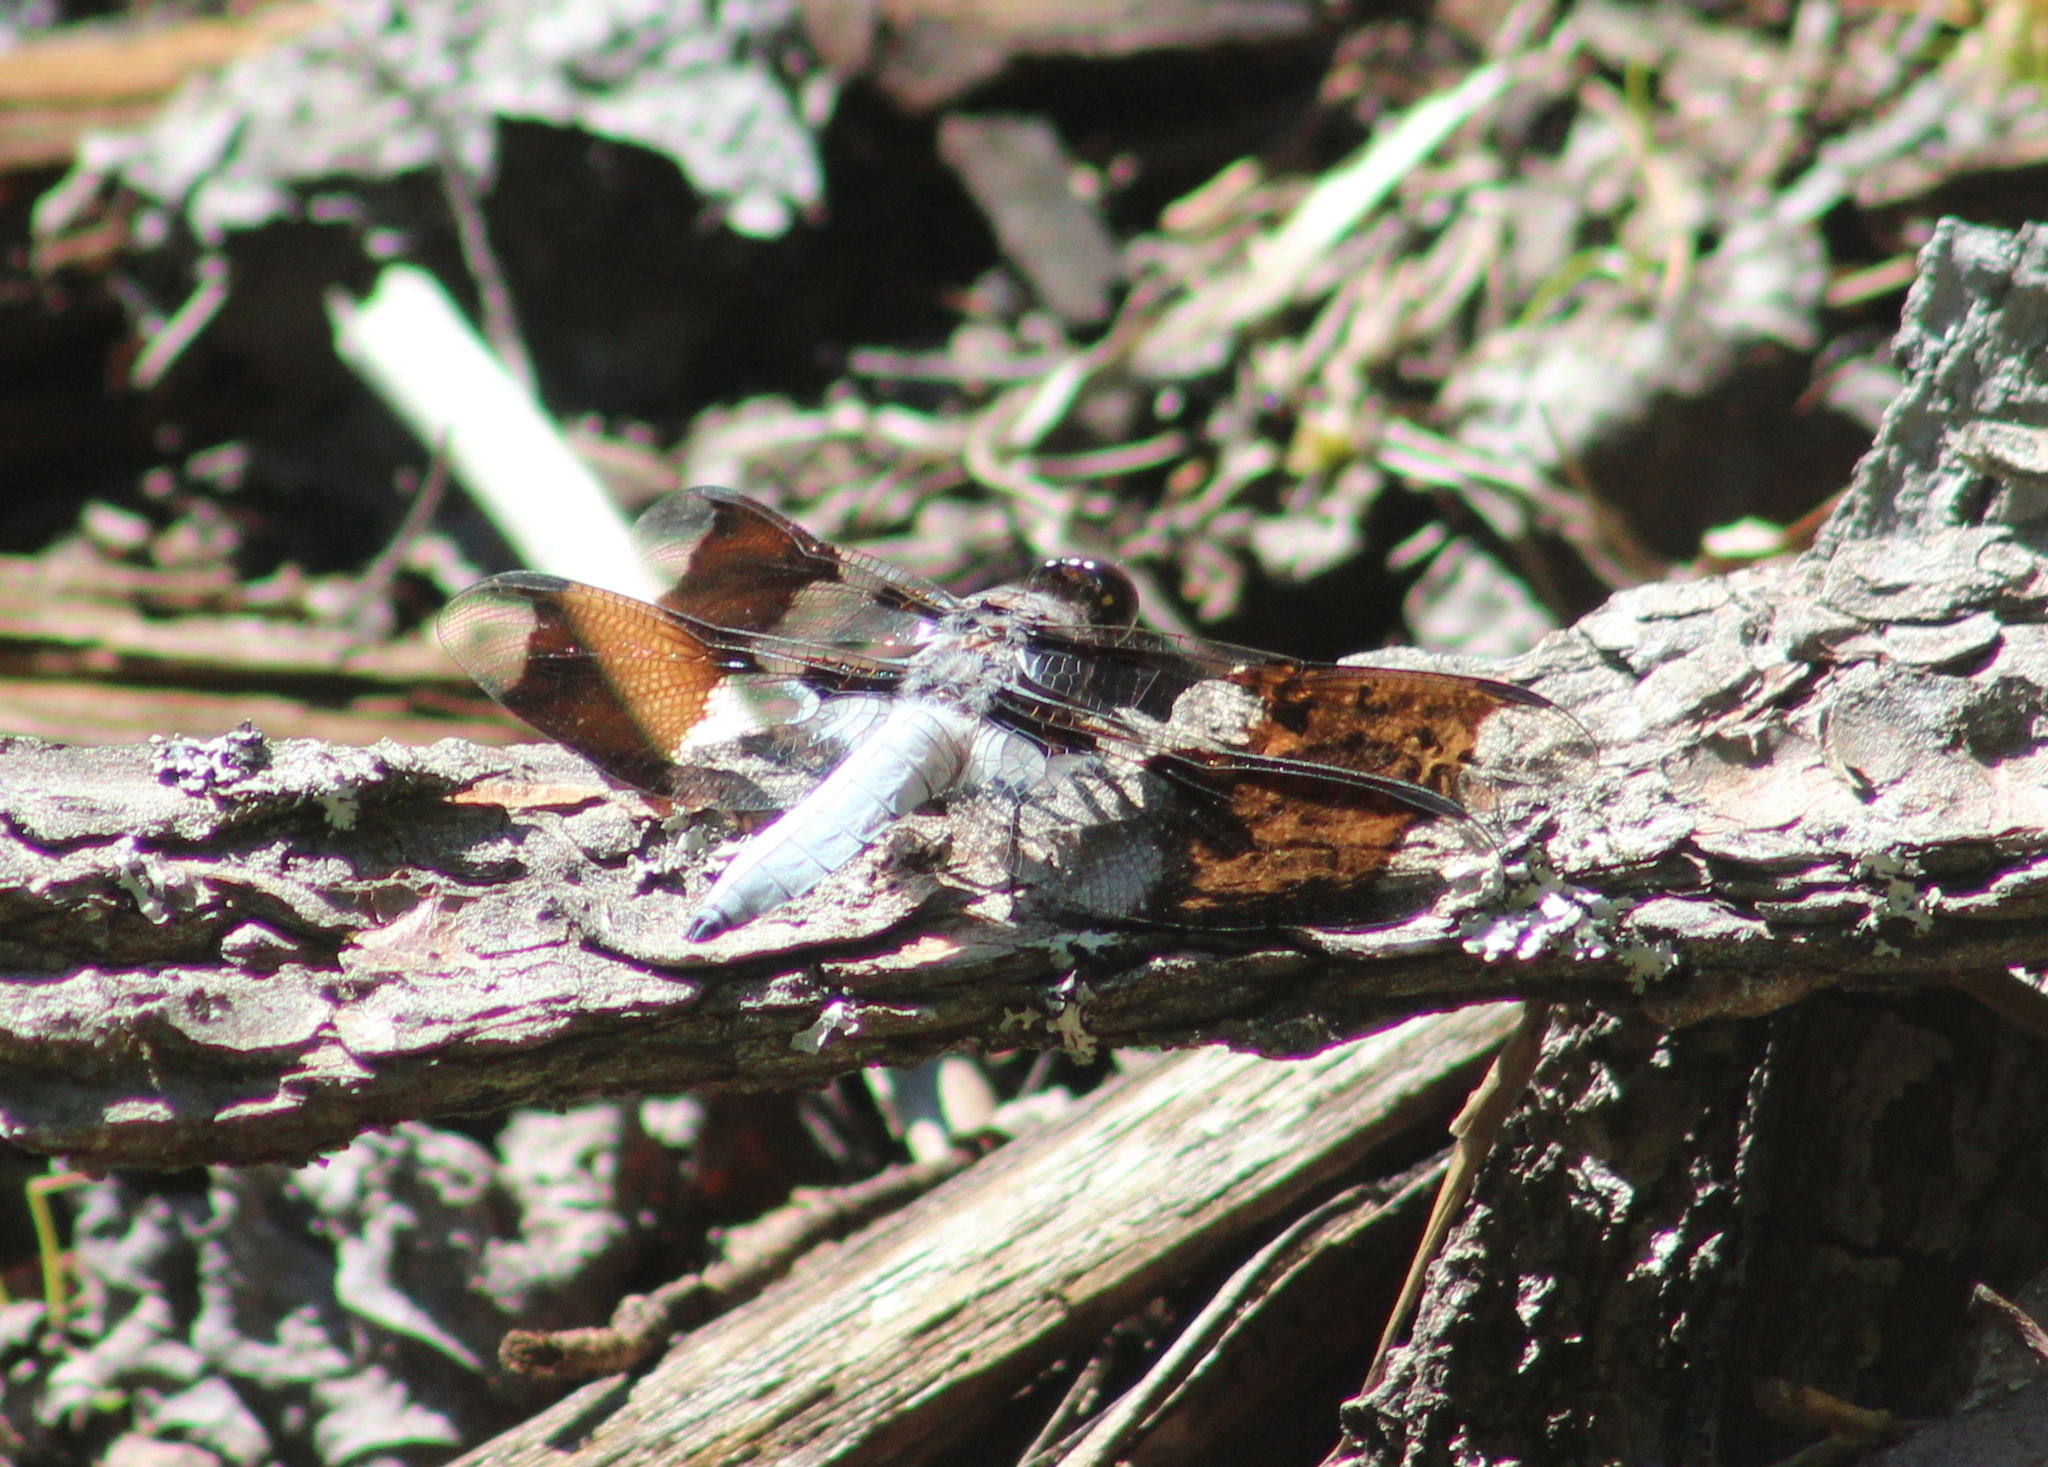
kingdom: Animalia
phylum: Arthropoda
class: Insecta
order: Odonata
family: Libellulidae
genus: Plathemis
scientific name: Plathemis lydia
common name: Common whitetail
